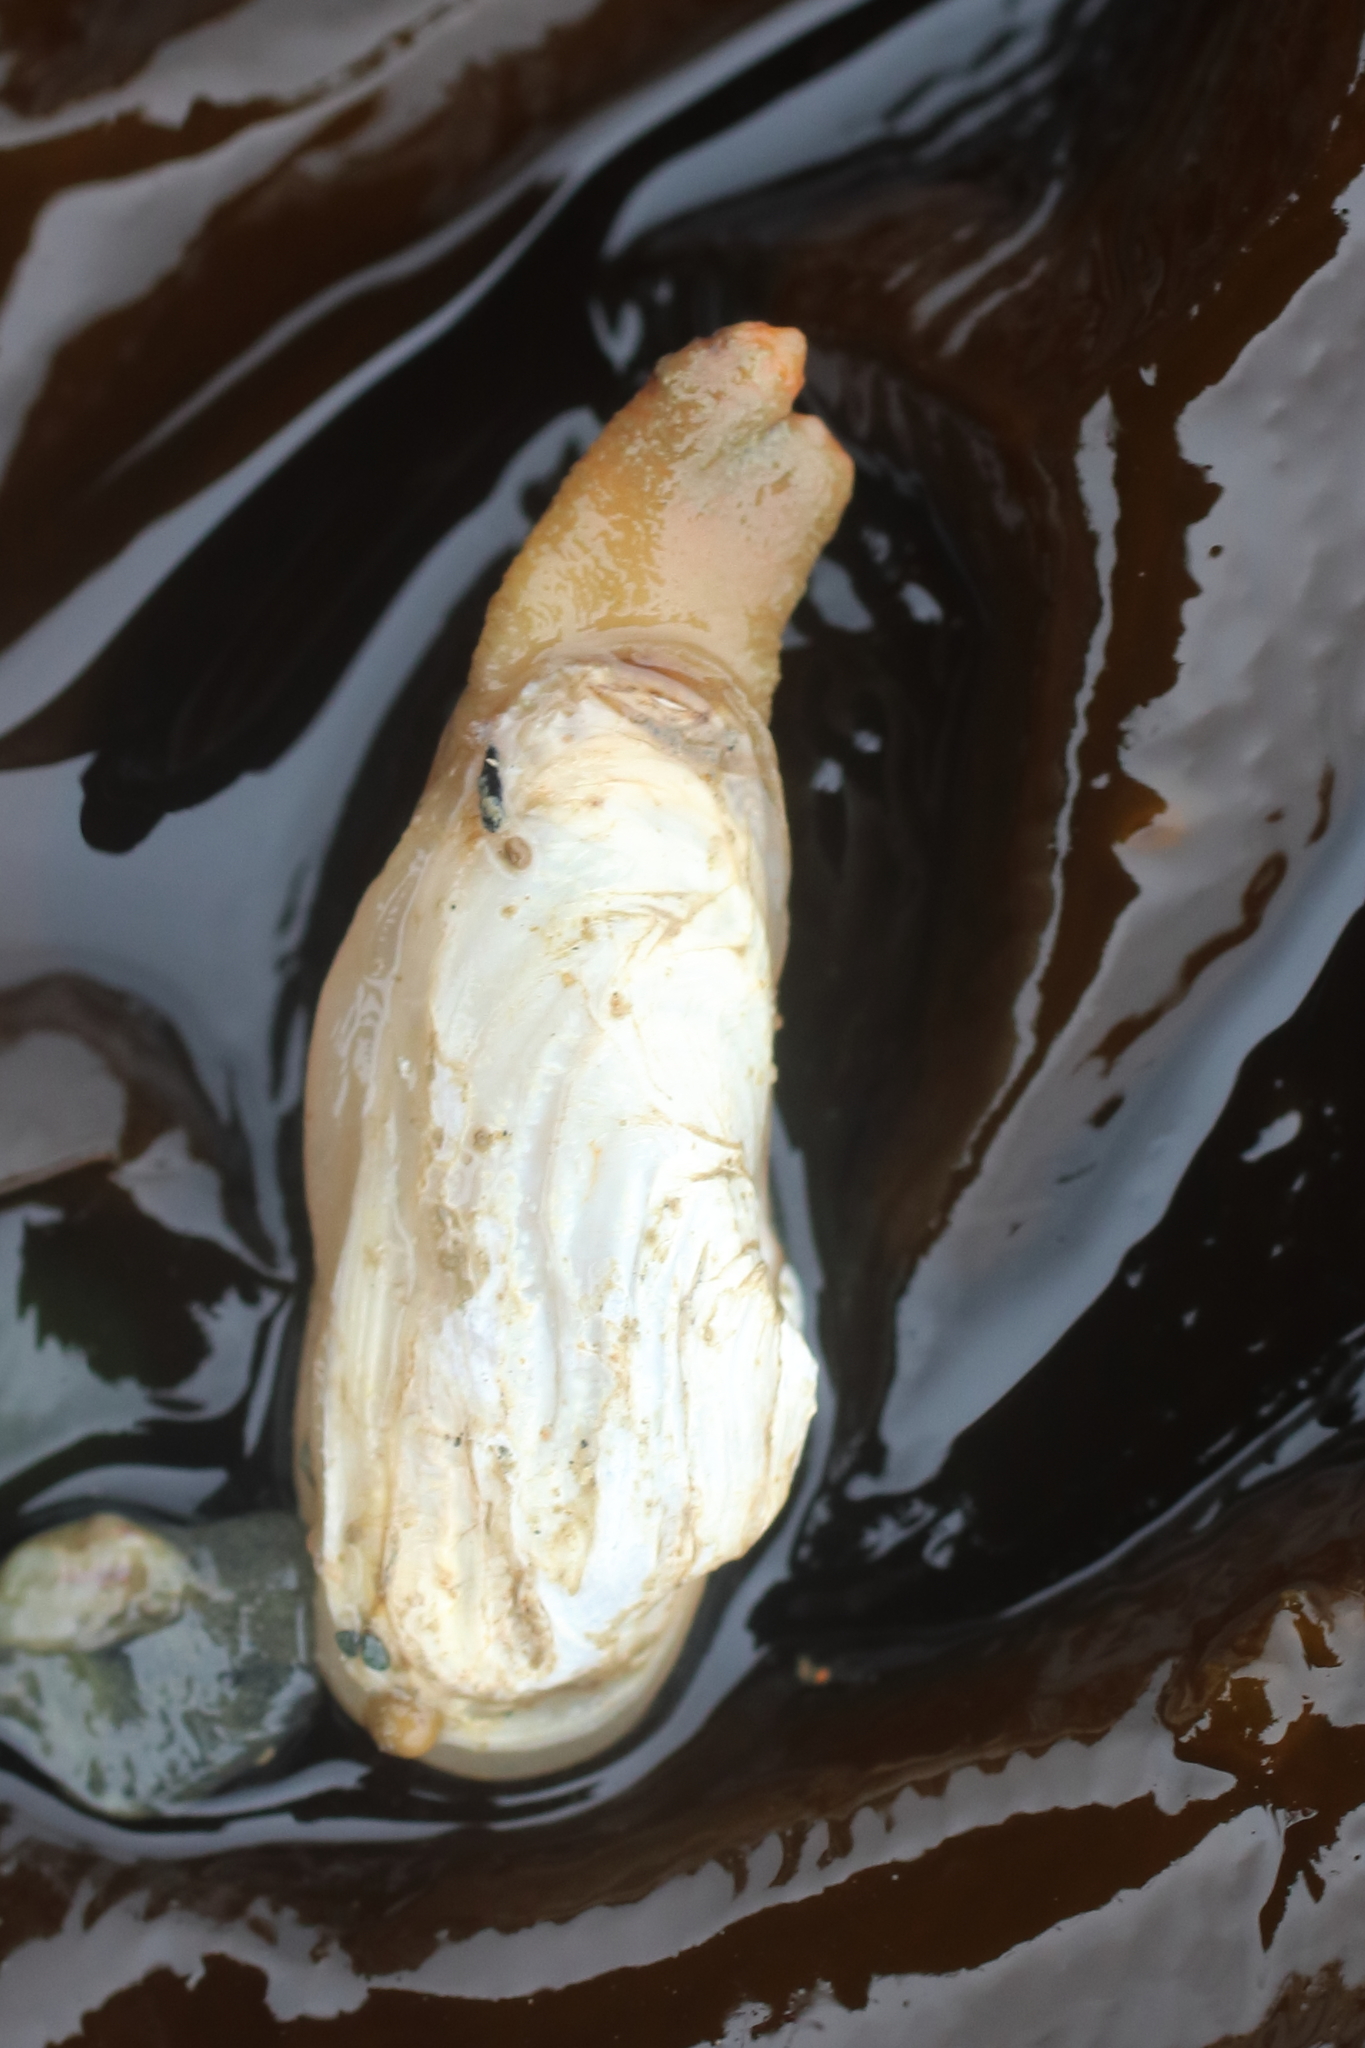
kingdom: Animalia
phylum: Mollusca
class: Bivalvia
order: Adapedonta
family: Hiatellidae
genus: Hiatella
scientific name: Hiatella arctica
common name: Arctic hiatella
